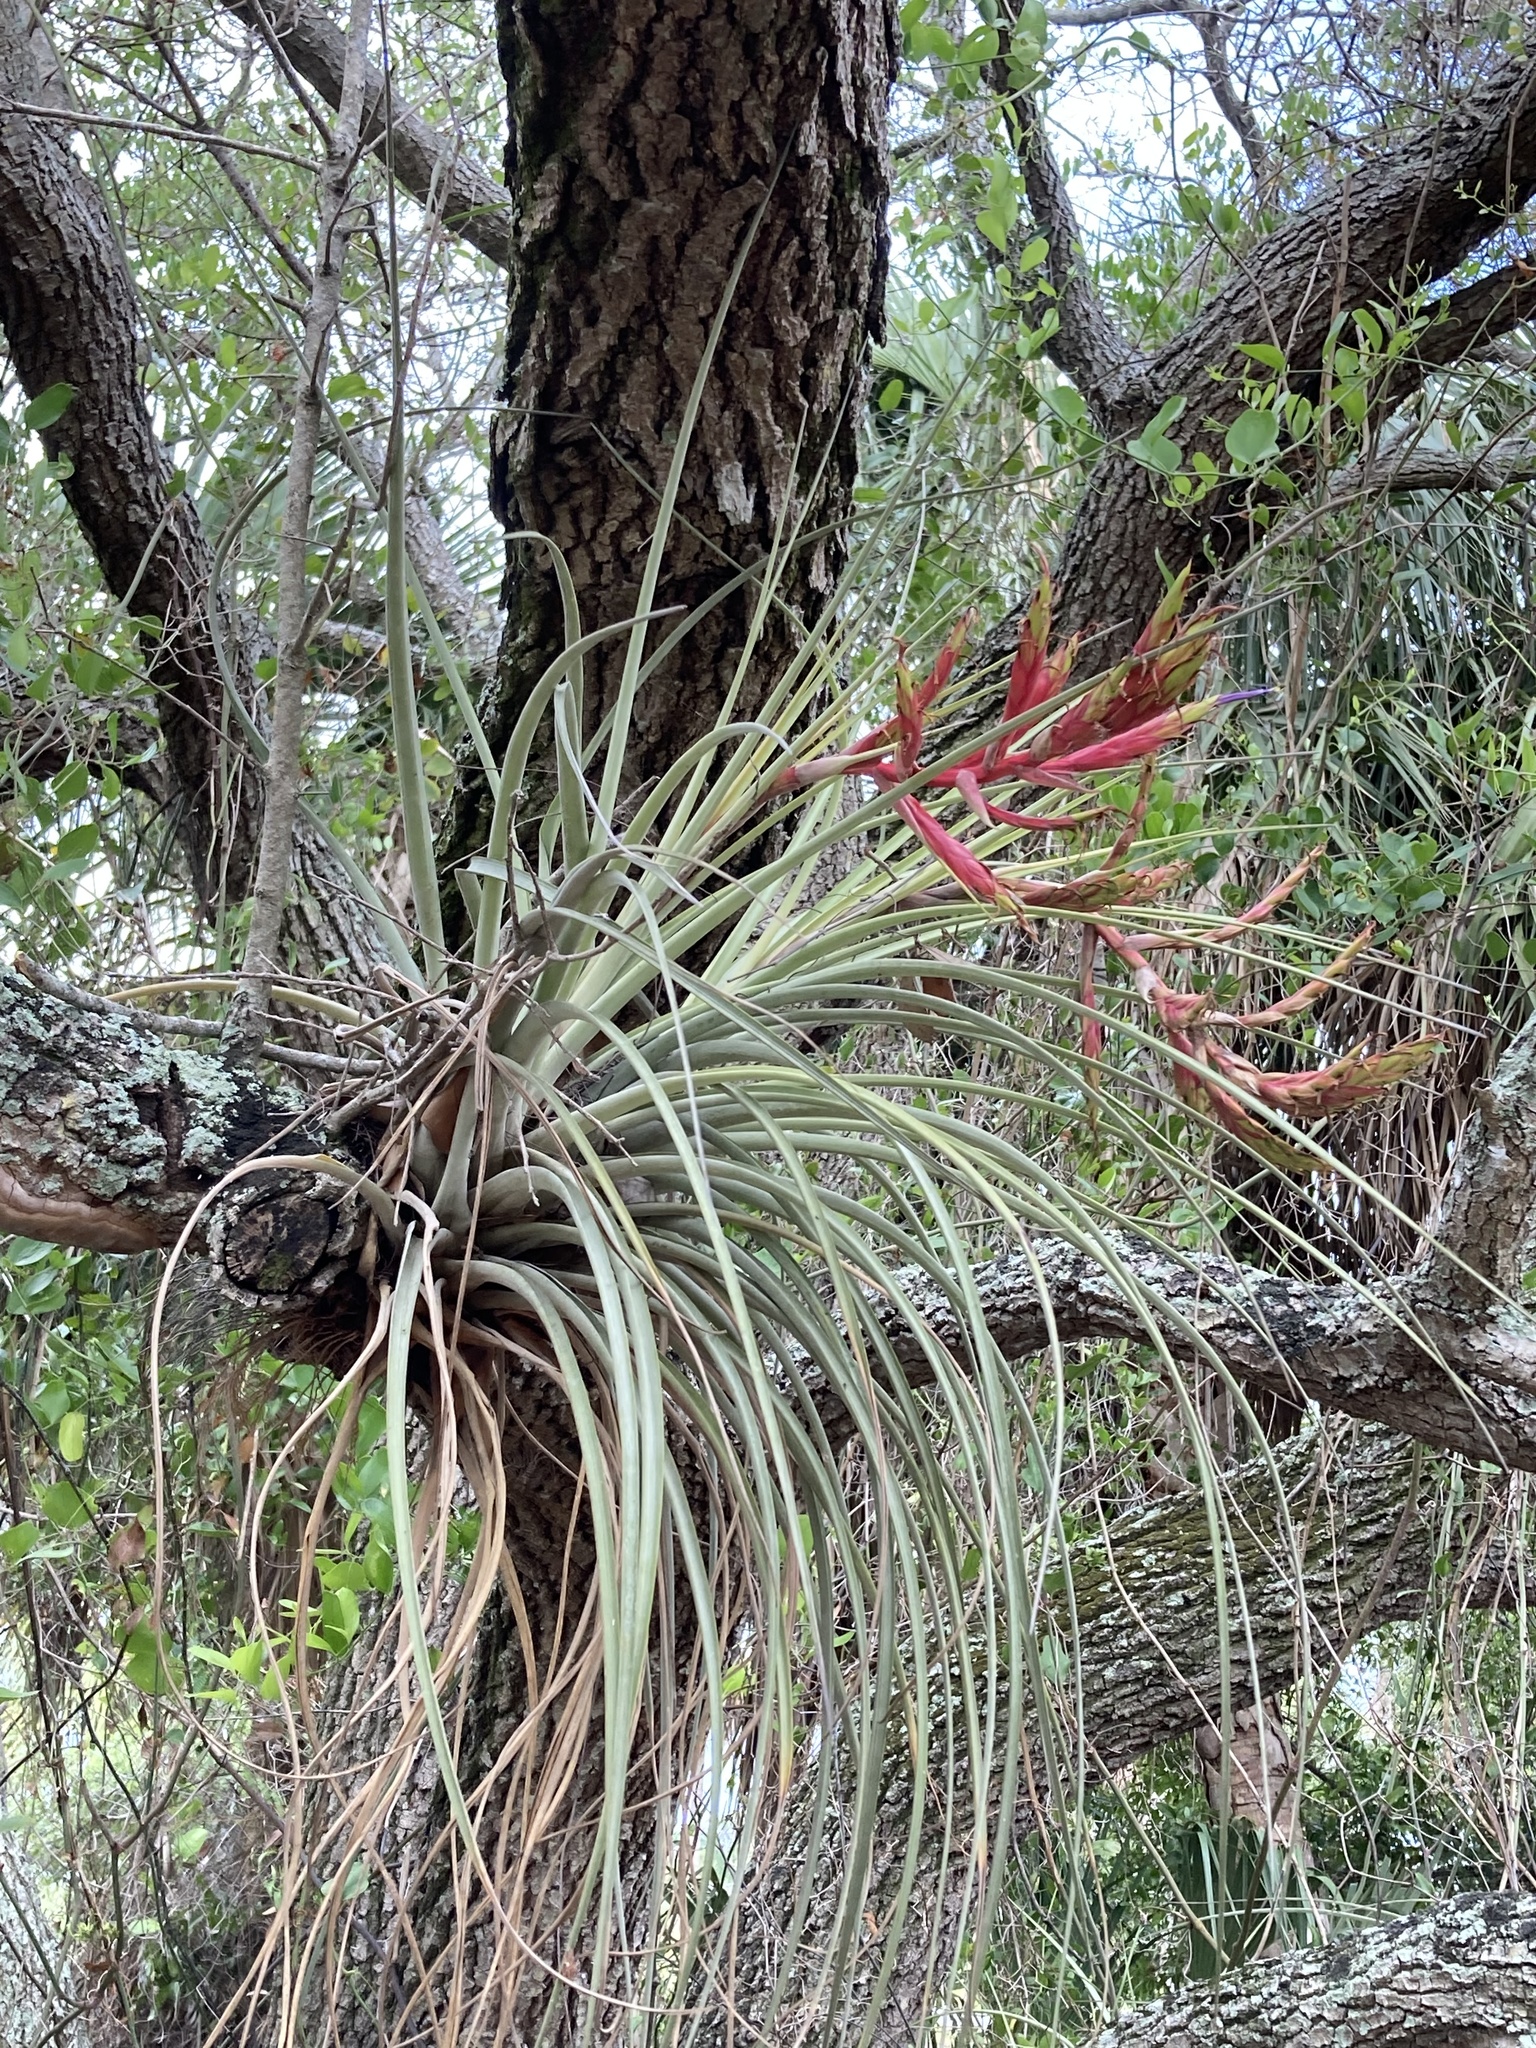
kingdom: Plantae
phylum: Tracheophyta
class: Liliopsida
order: Poales
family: Bromeliaceae
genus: Tillandsia
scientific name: Tillandsia fasciculata
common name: Giant airplant
